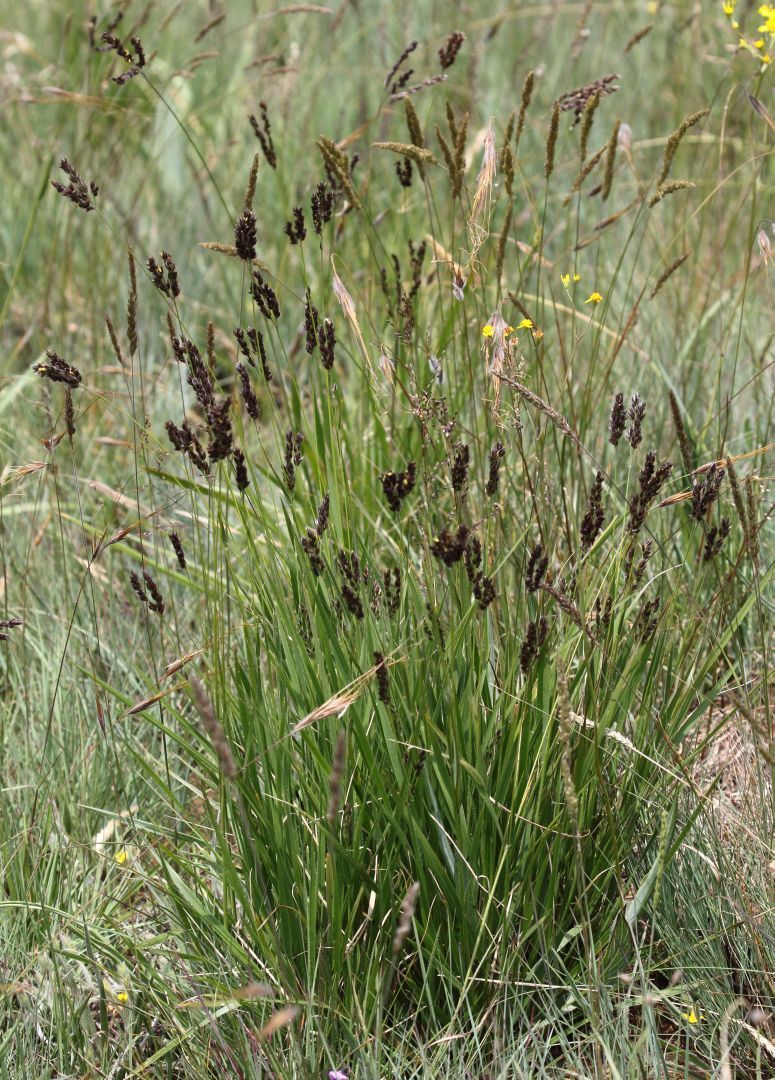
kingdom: Plantae
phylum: Tracheophyta
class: Liliopsida
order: Poales
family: Poaceae
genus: Alloteropsis
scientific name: Alloteropsis semialata
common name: Cockatoo grass
